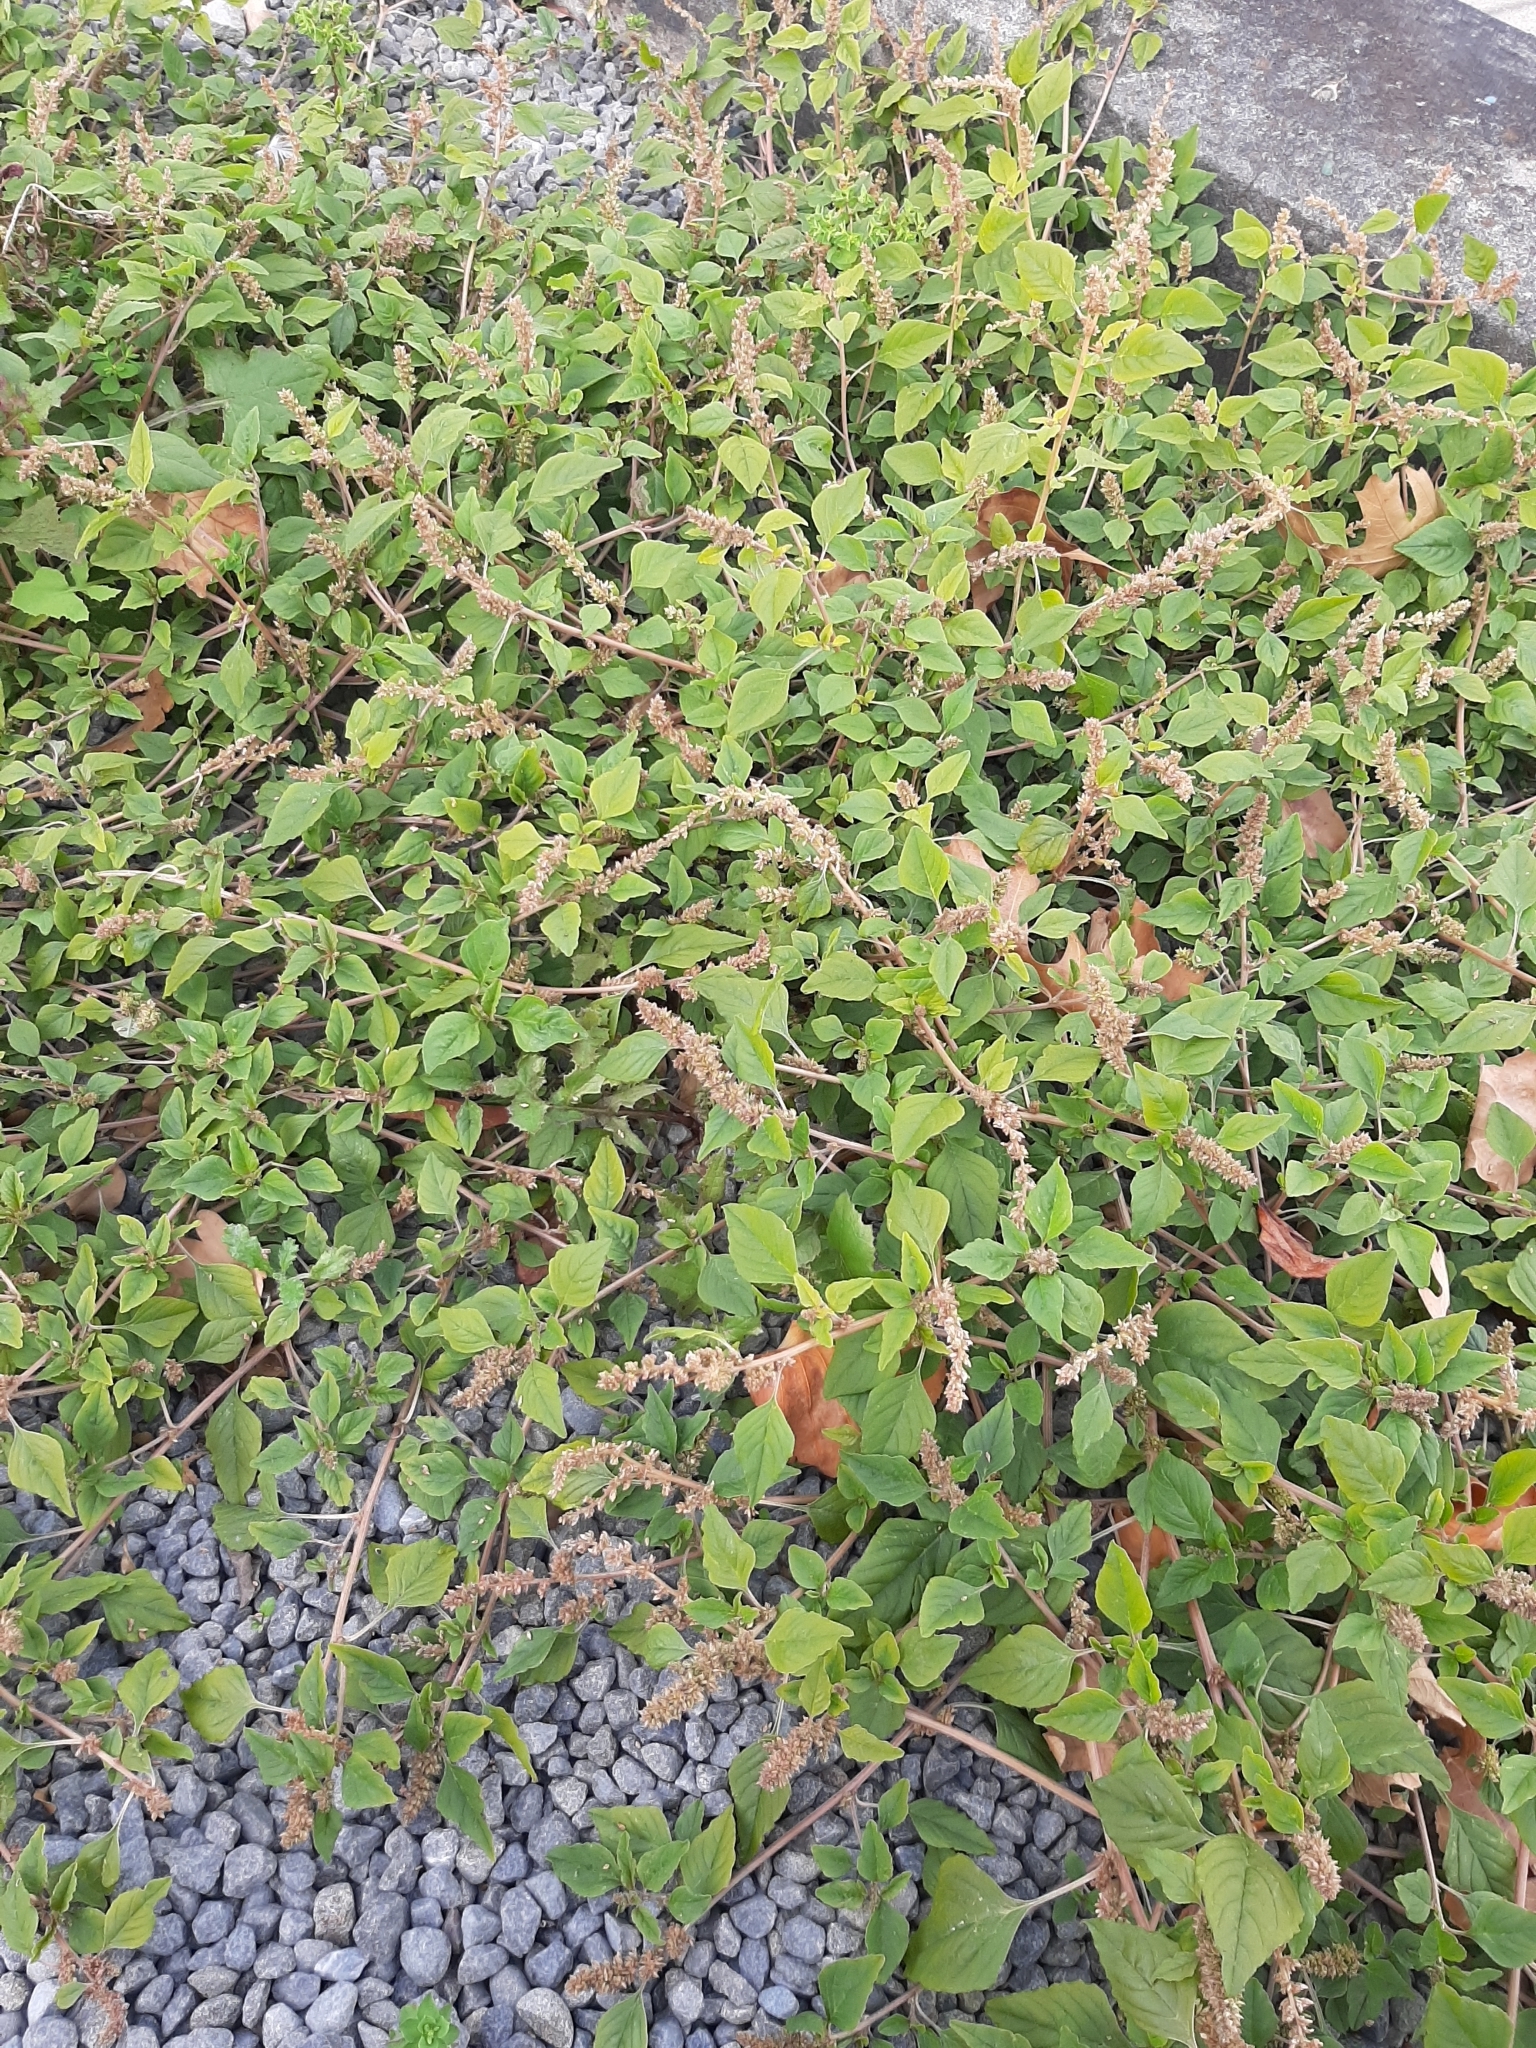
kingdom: Plantae
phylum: Tracheophyta
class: Magnoliopsida
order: Caryophyllales
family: Amaranthaceae
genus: Amaranthus
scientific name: Amaranthus deflexus
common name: Perennial pigweed
